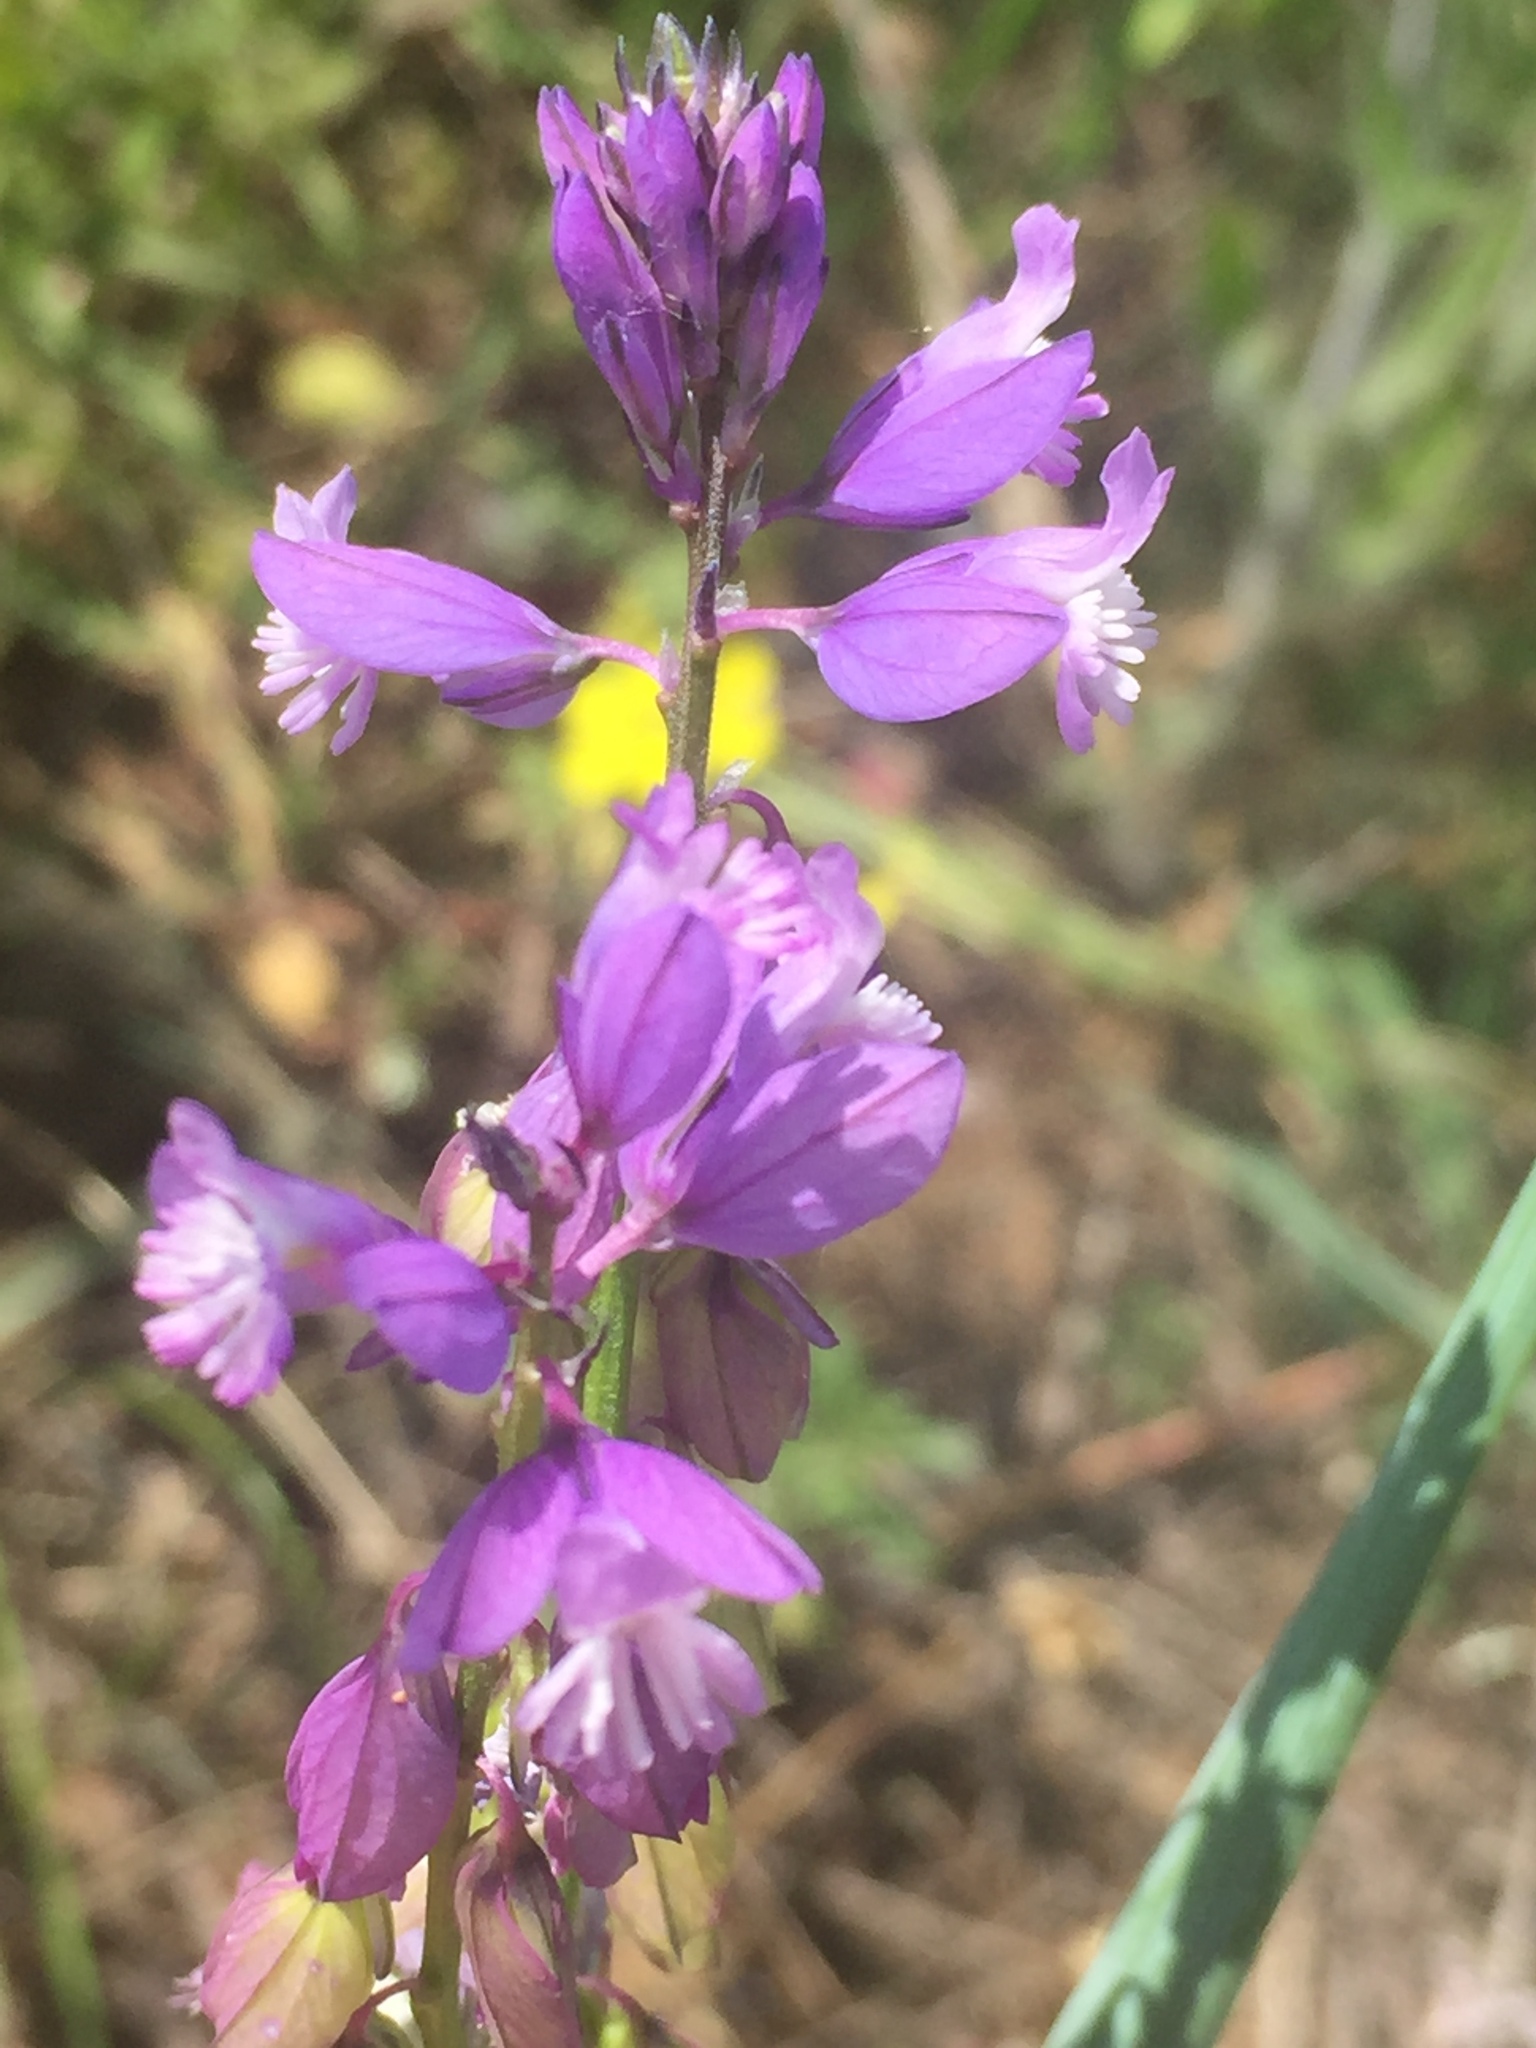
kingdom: Plantae
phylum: Tracheophyta
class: Magnoliopsida
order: Fabales
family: Polygalaceae
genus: Polygala
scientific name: Polygala nicaeensis
